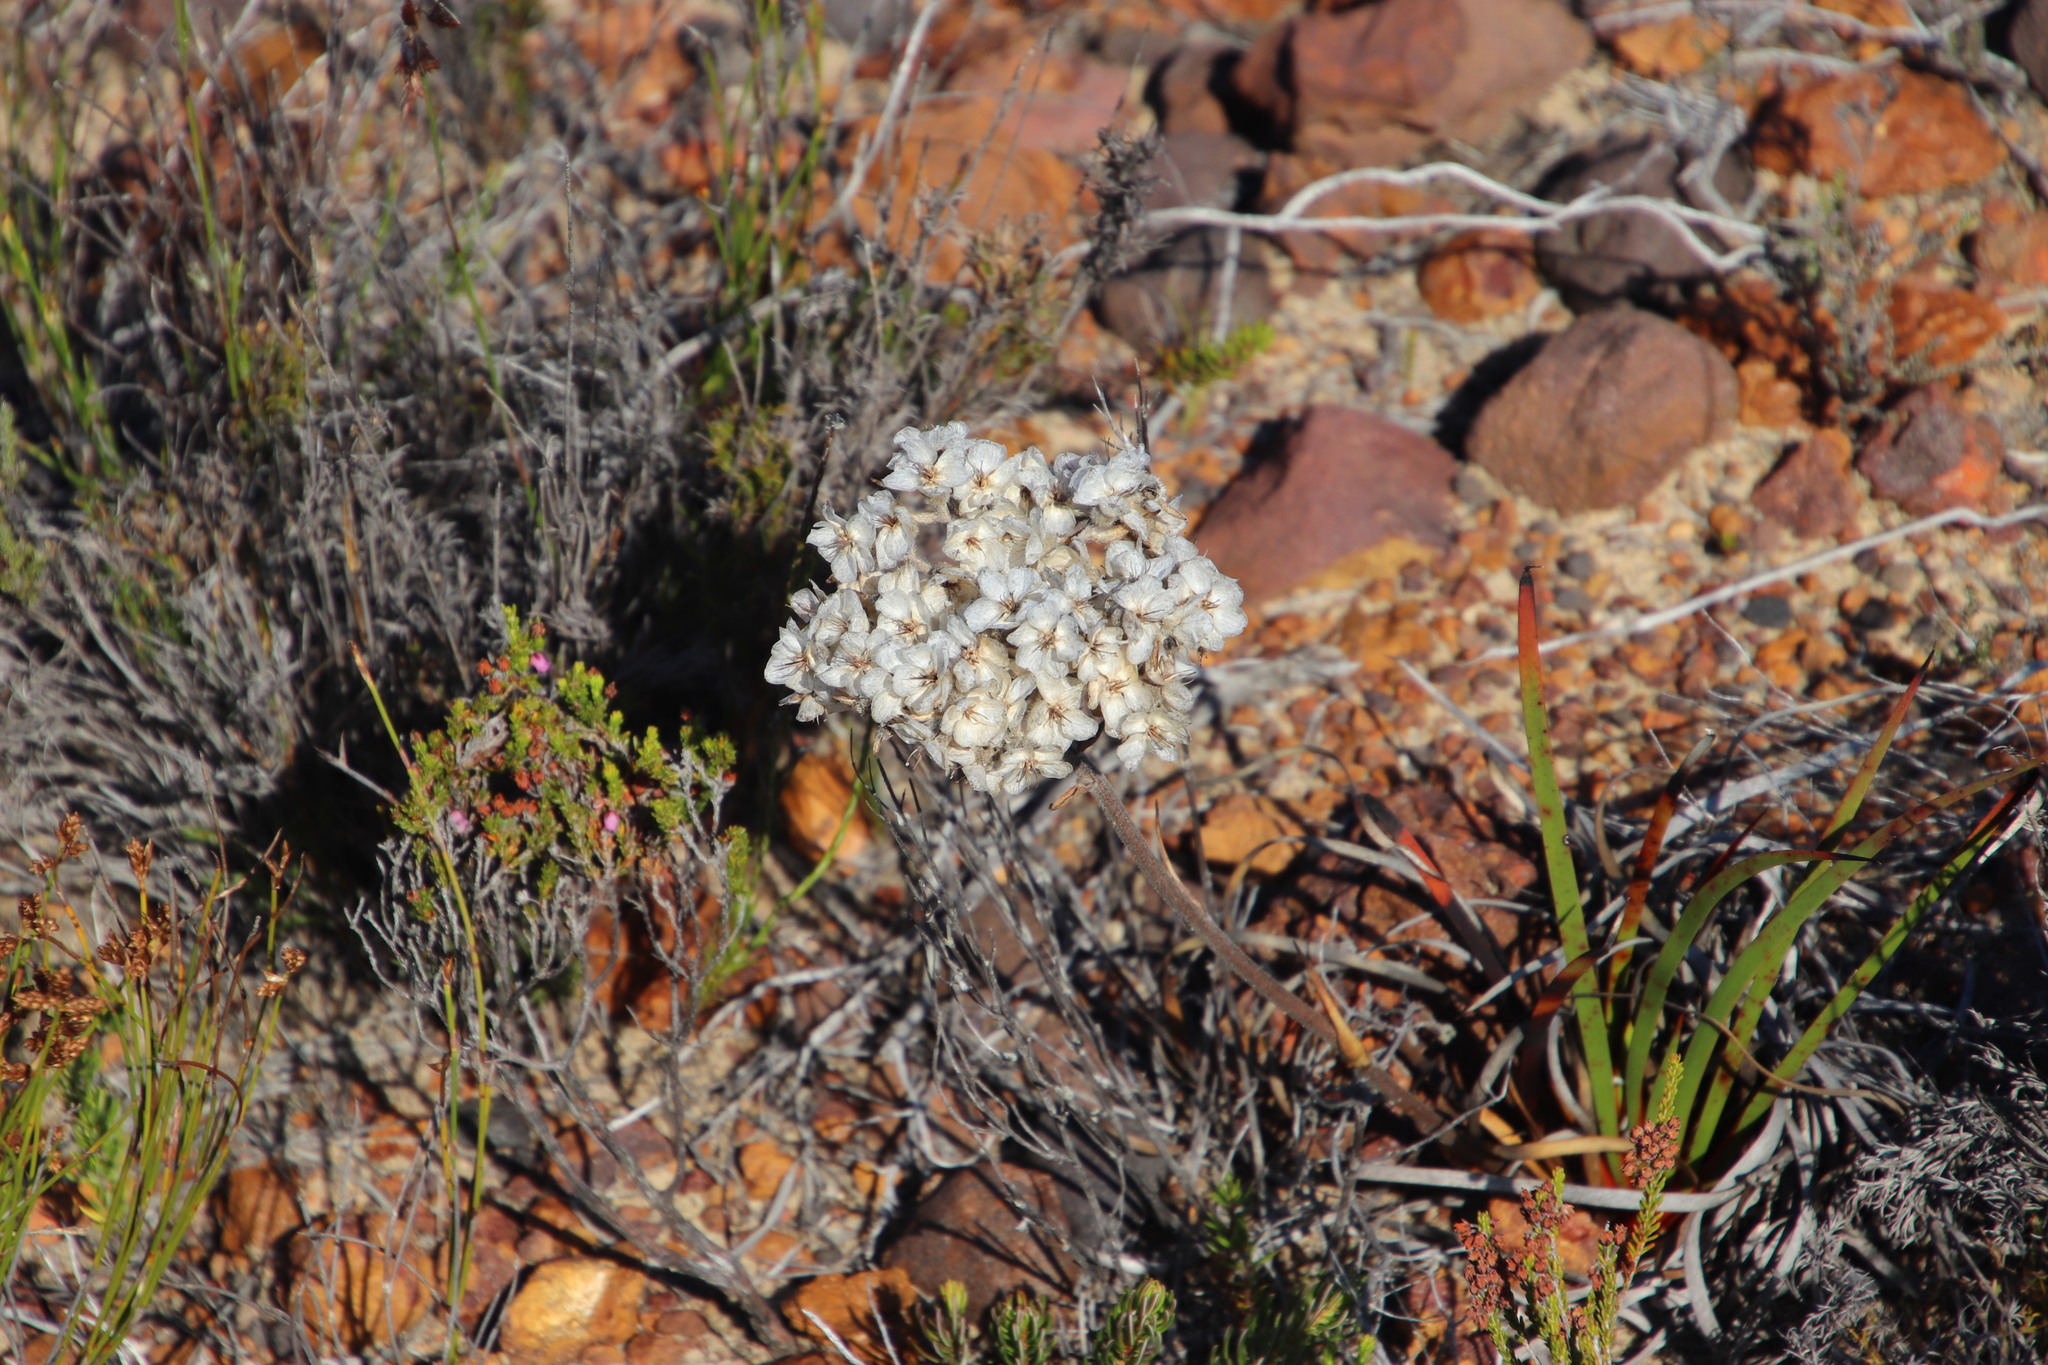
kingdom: Plantae
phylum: Tracheophyta
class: Liliopsida
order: Commelinales
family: Haemodoraceae
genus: Dilatris
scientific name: Dilatris pillansii
